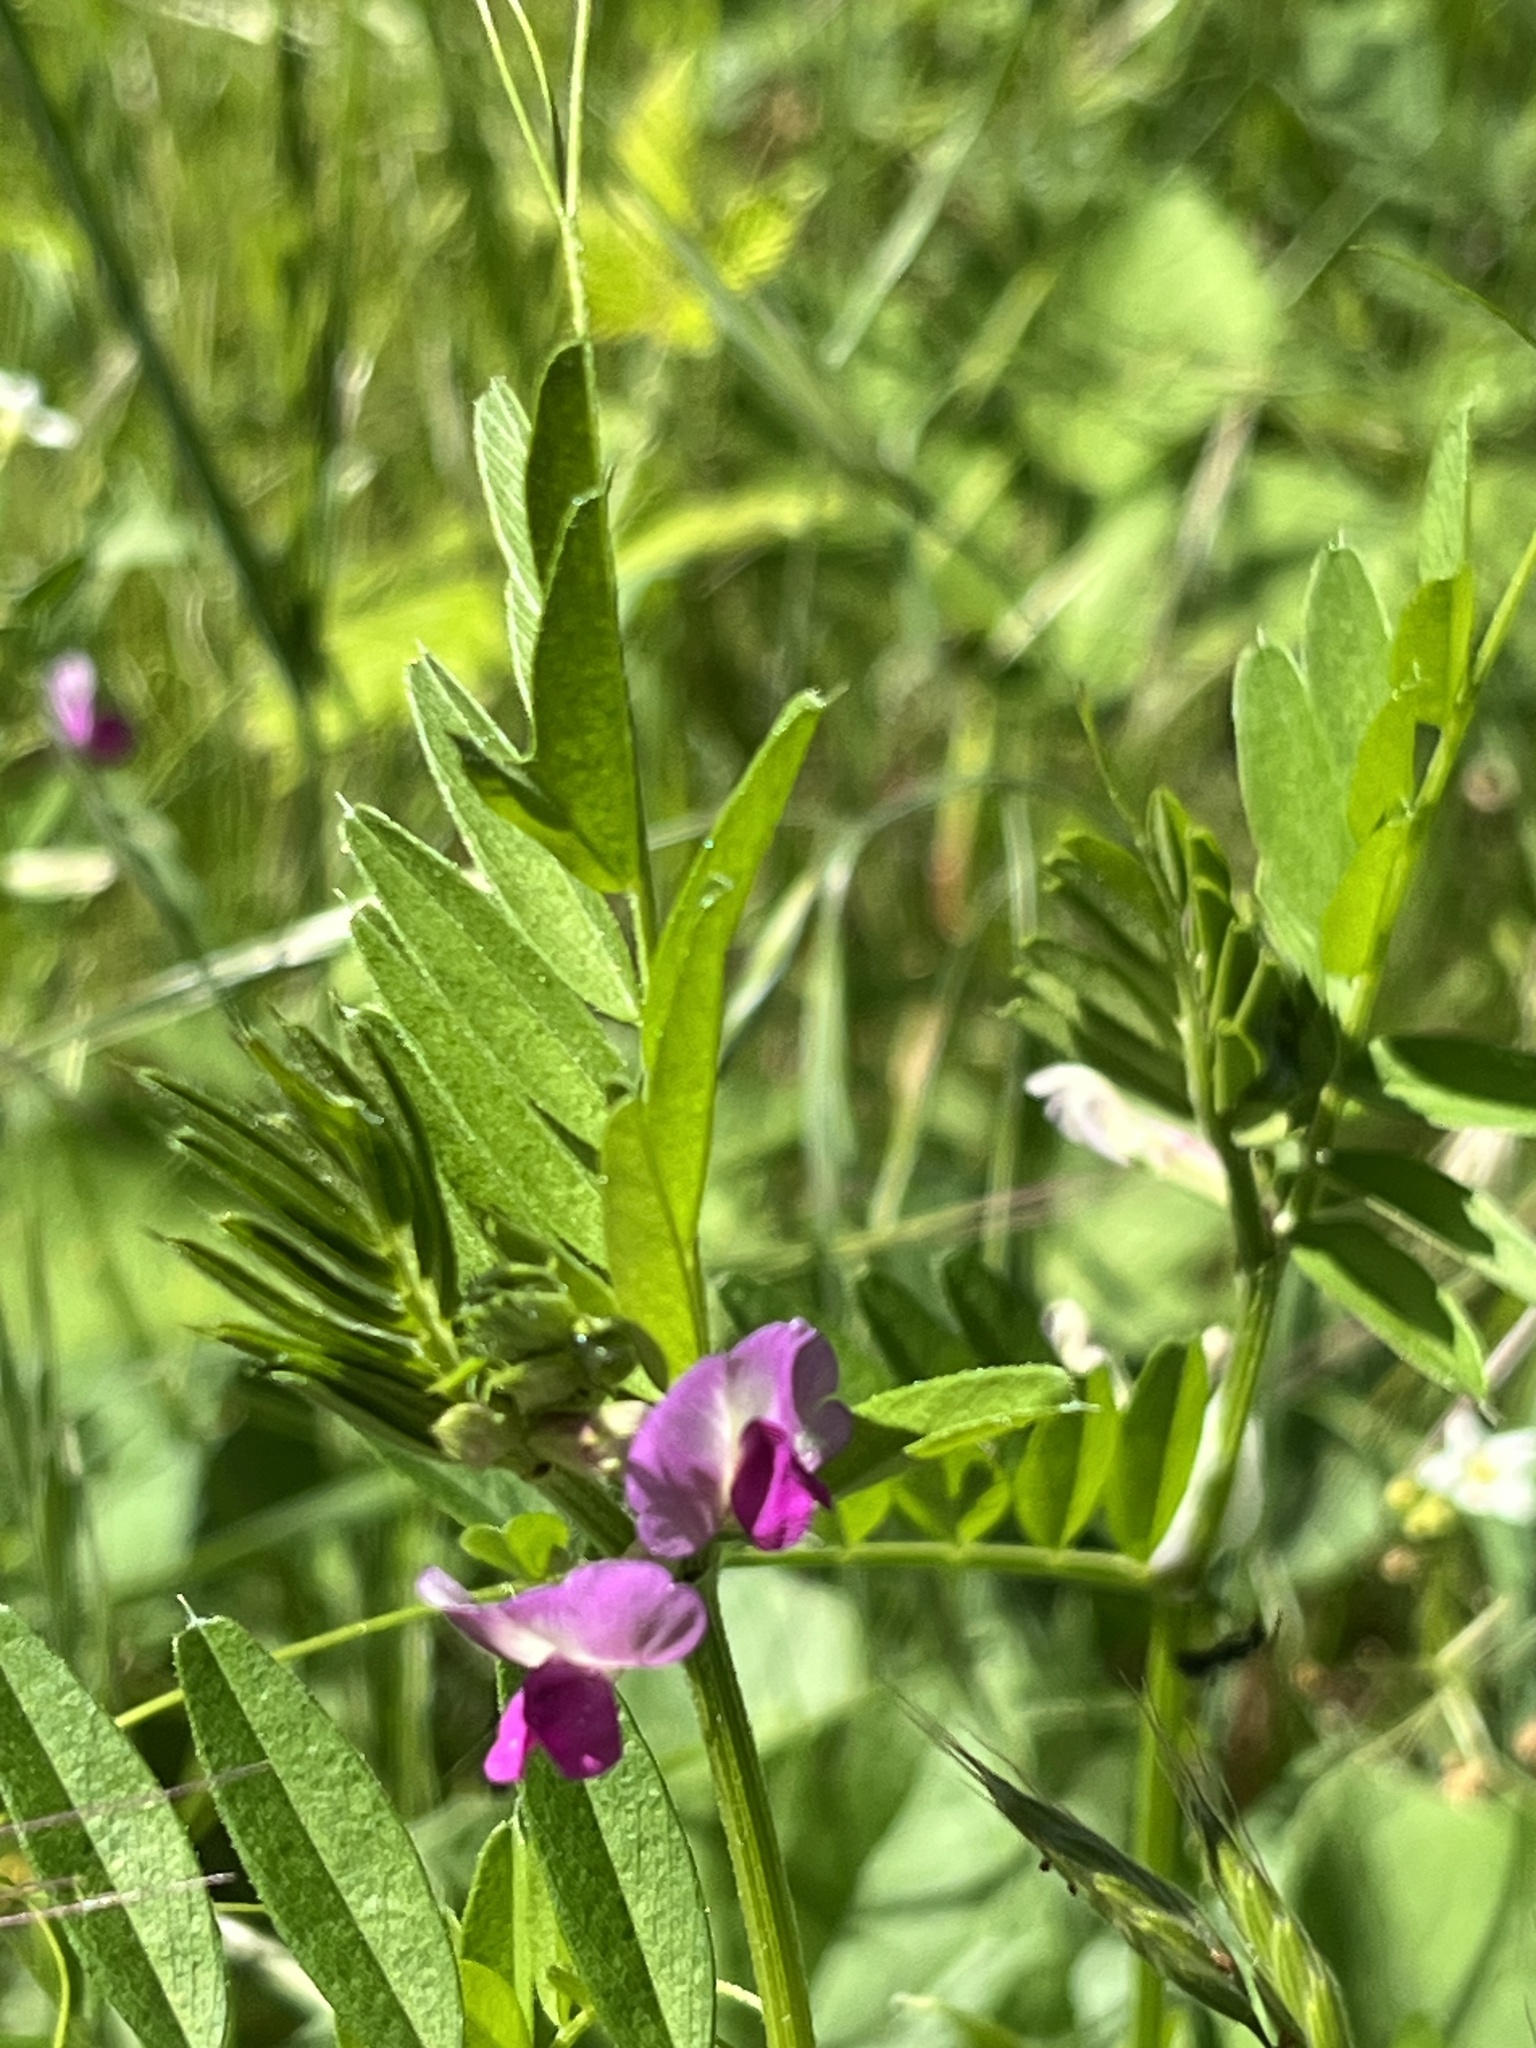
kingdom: Plantae
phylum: Tracheophyta
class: Magnoliopsida
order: Fabales
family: Fabaceae
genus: Vicia
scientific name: Vicia sativa
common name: Garden vetch
